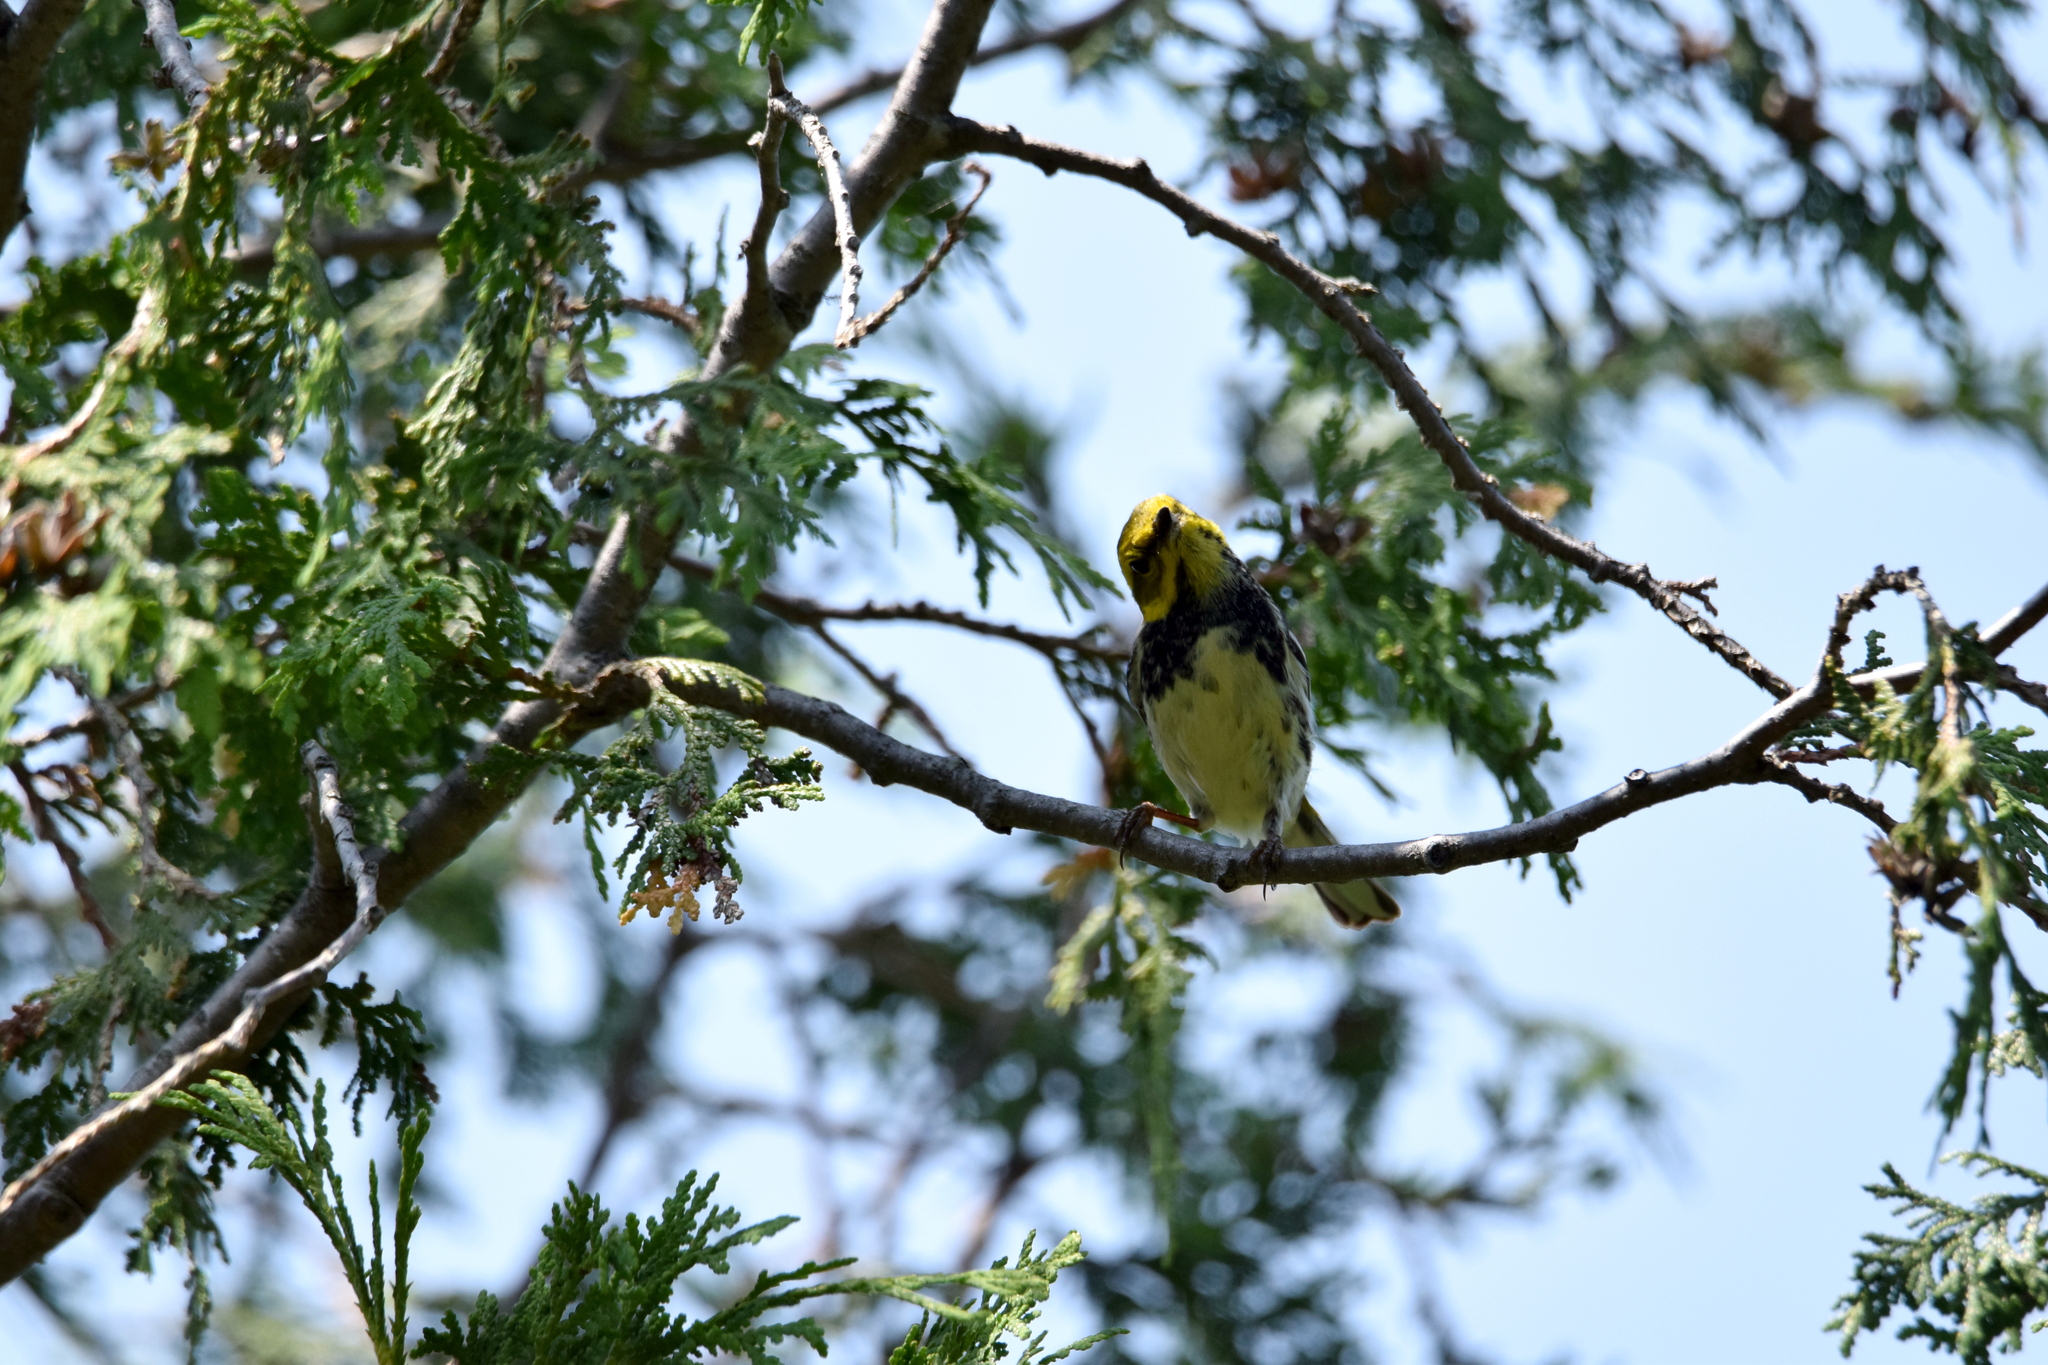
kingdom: Animalia
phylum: Chordata
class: Aves
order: Passeriformes
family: Parulidae
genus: Setophaga
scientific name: Setophaga virens
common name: Black-throated green warbler
